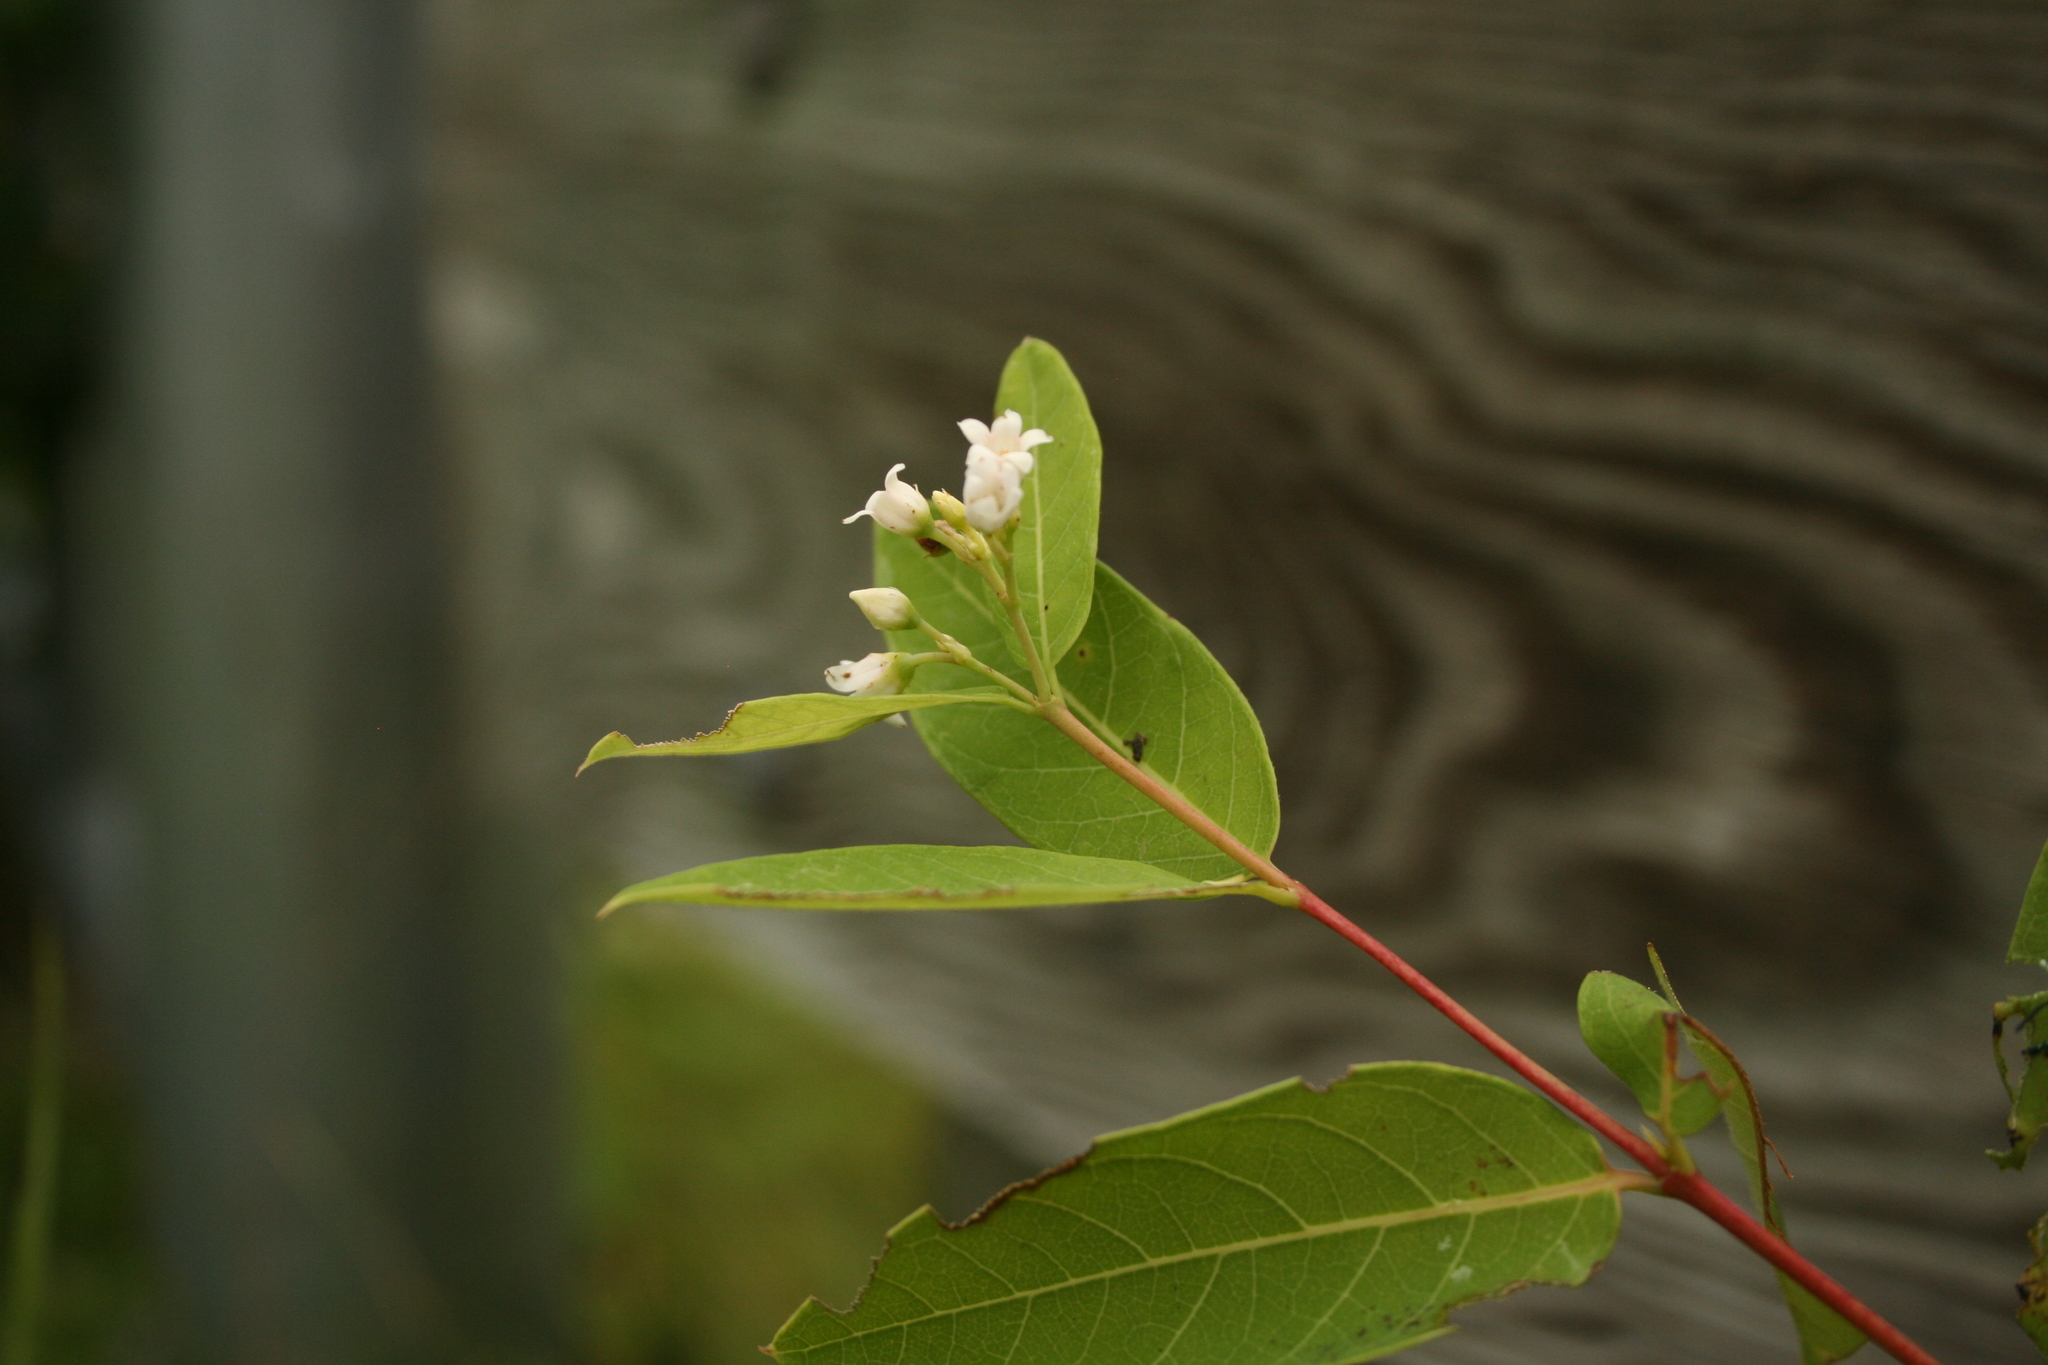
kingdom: Animalia
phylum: Arthropoda
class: Insecta
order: Coleoptera
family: Chrysomelidae
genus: Chrysochus
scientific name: Chrysochus auratus
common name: Dogbane leaf beetle
